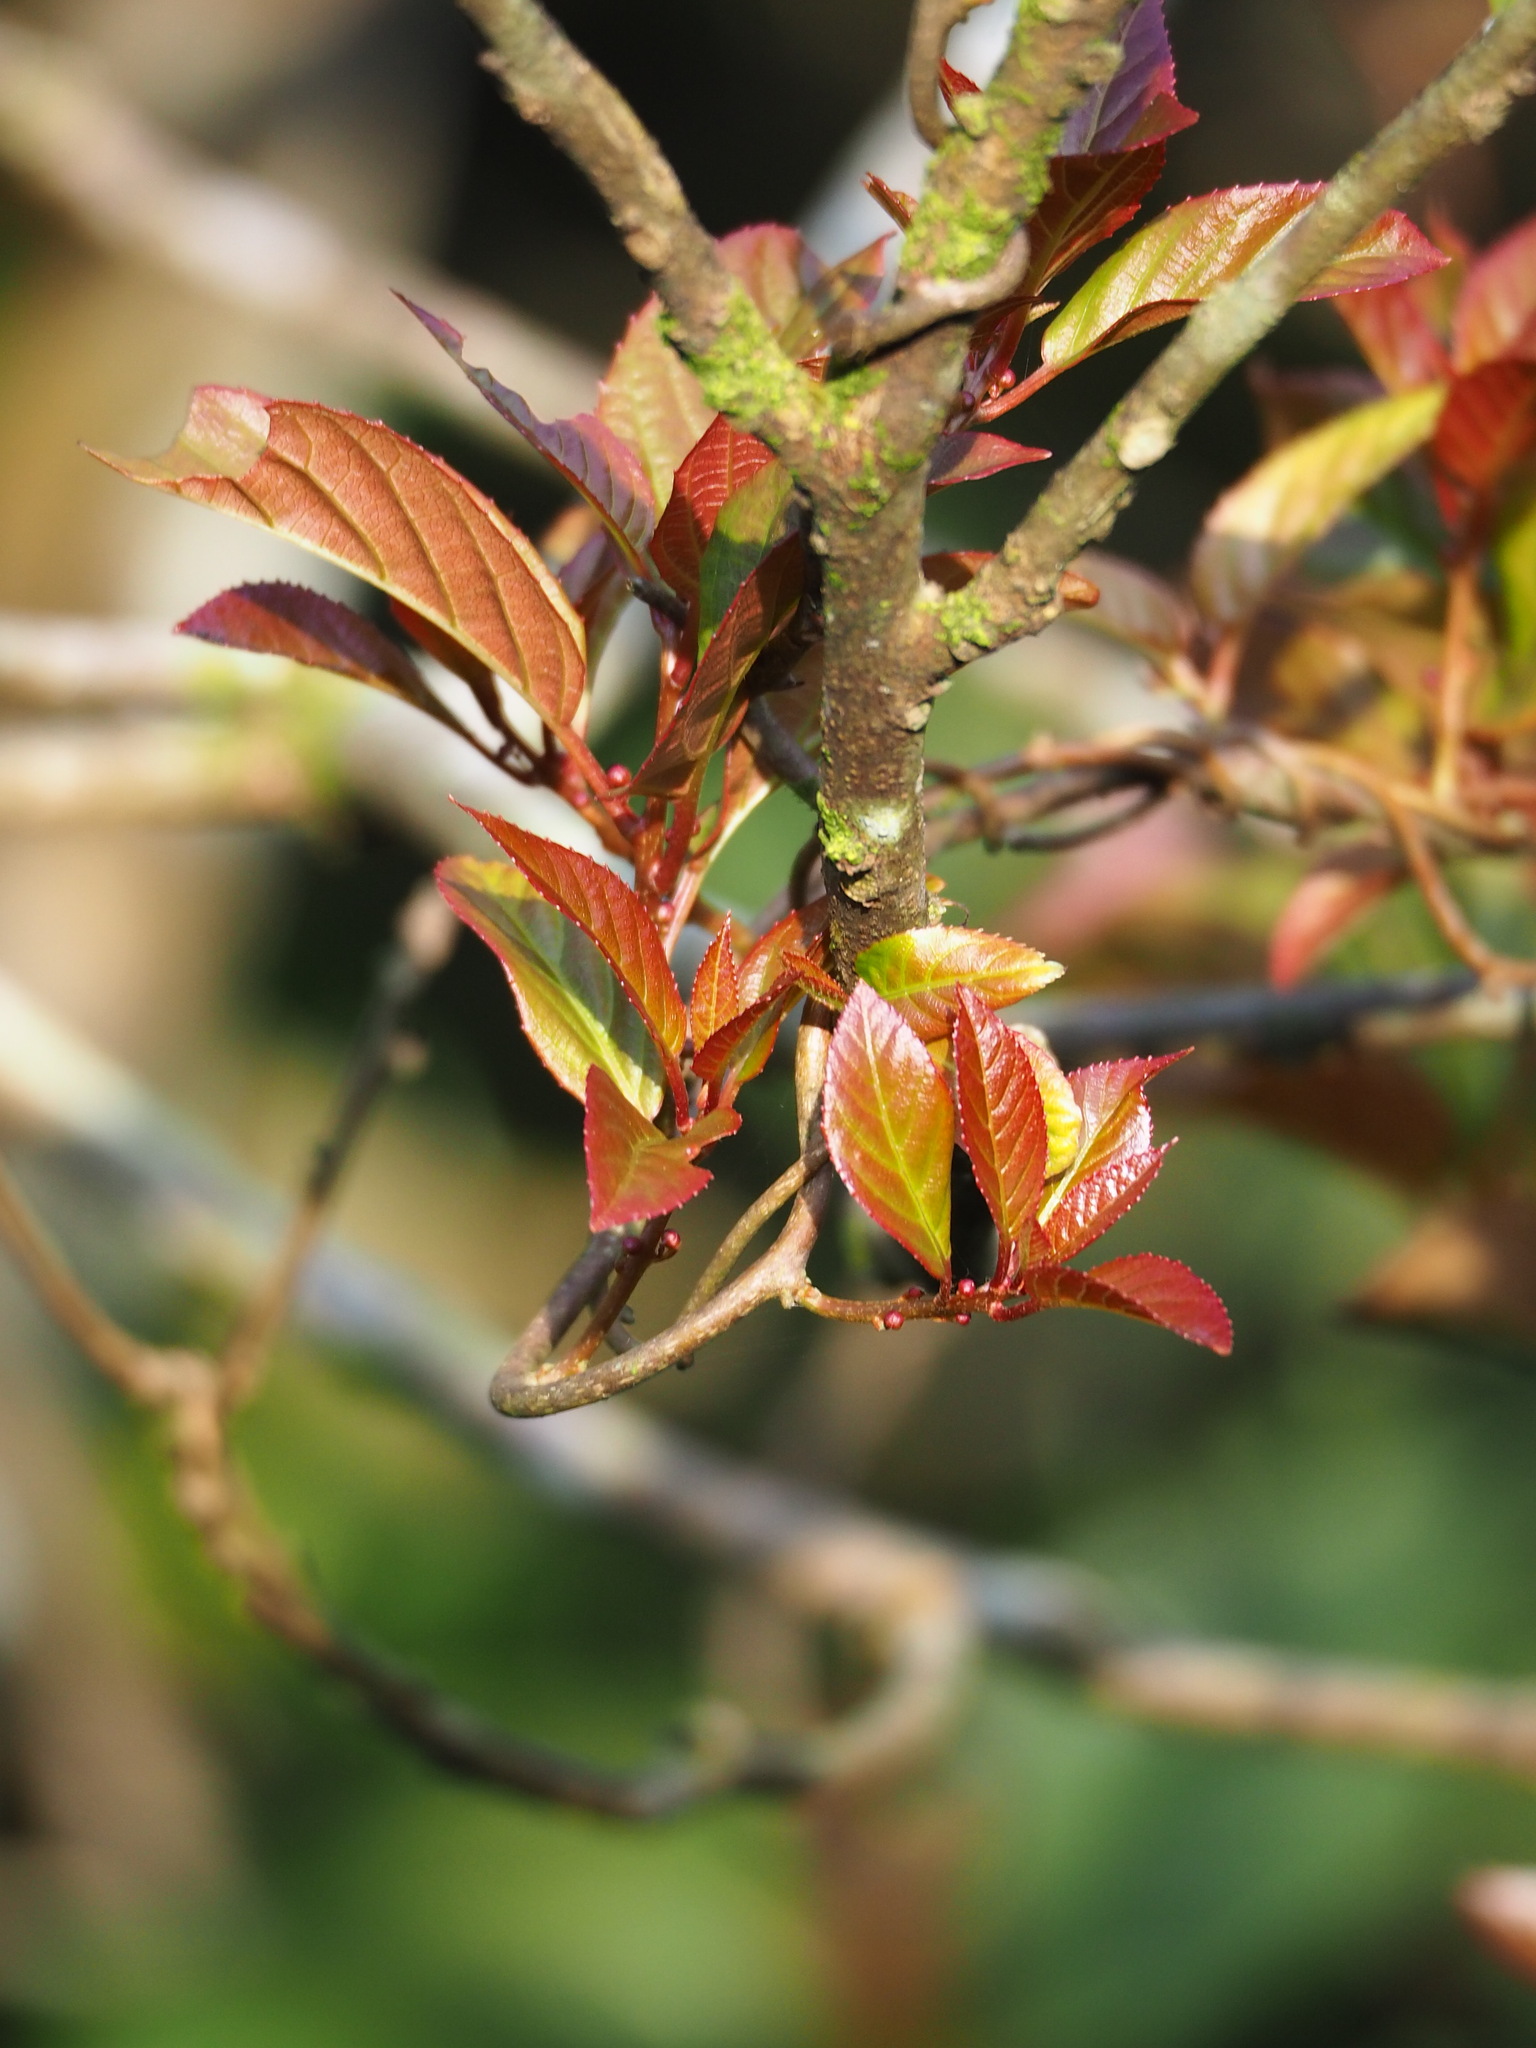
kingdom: Plantae
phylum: Tracheophyta
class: Magnoliopsida
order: Ericales
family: Actinidiaceae
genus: Actinidia
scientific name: Actinidia rufa
